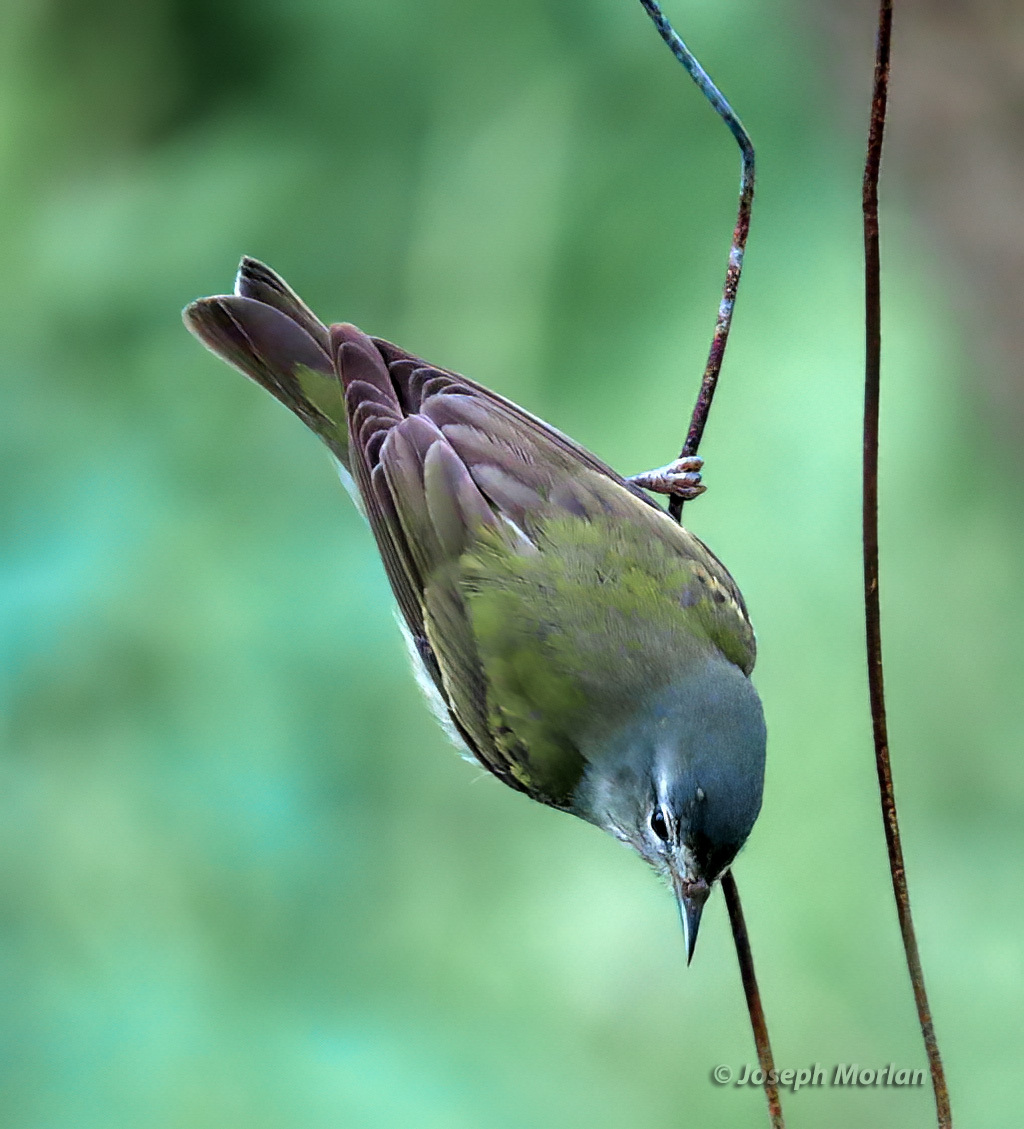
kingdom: Animalia
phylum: Chordata
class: Aves
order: Passeriformes
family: Parulidae
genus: Leiothlypis
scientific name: Leiothlypis peregrina
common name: Tennessee warbler
